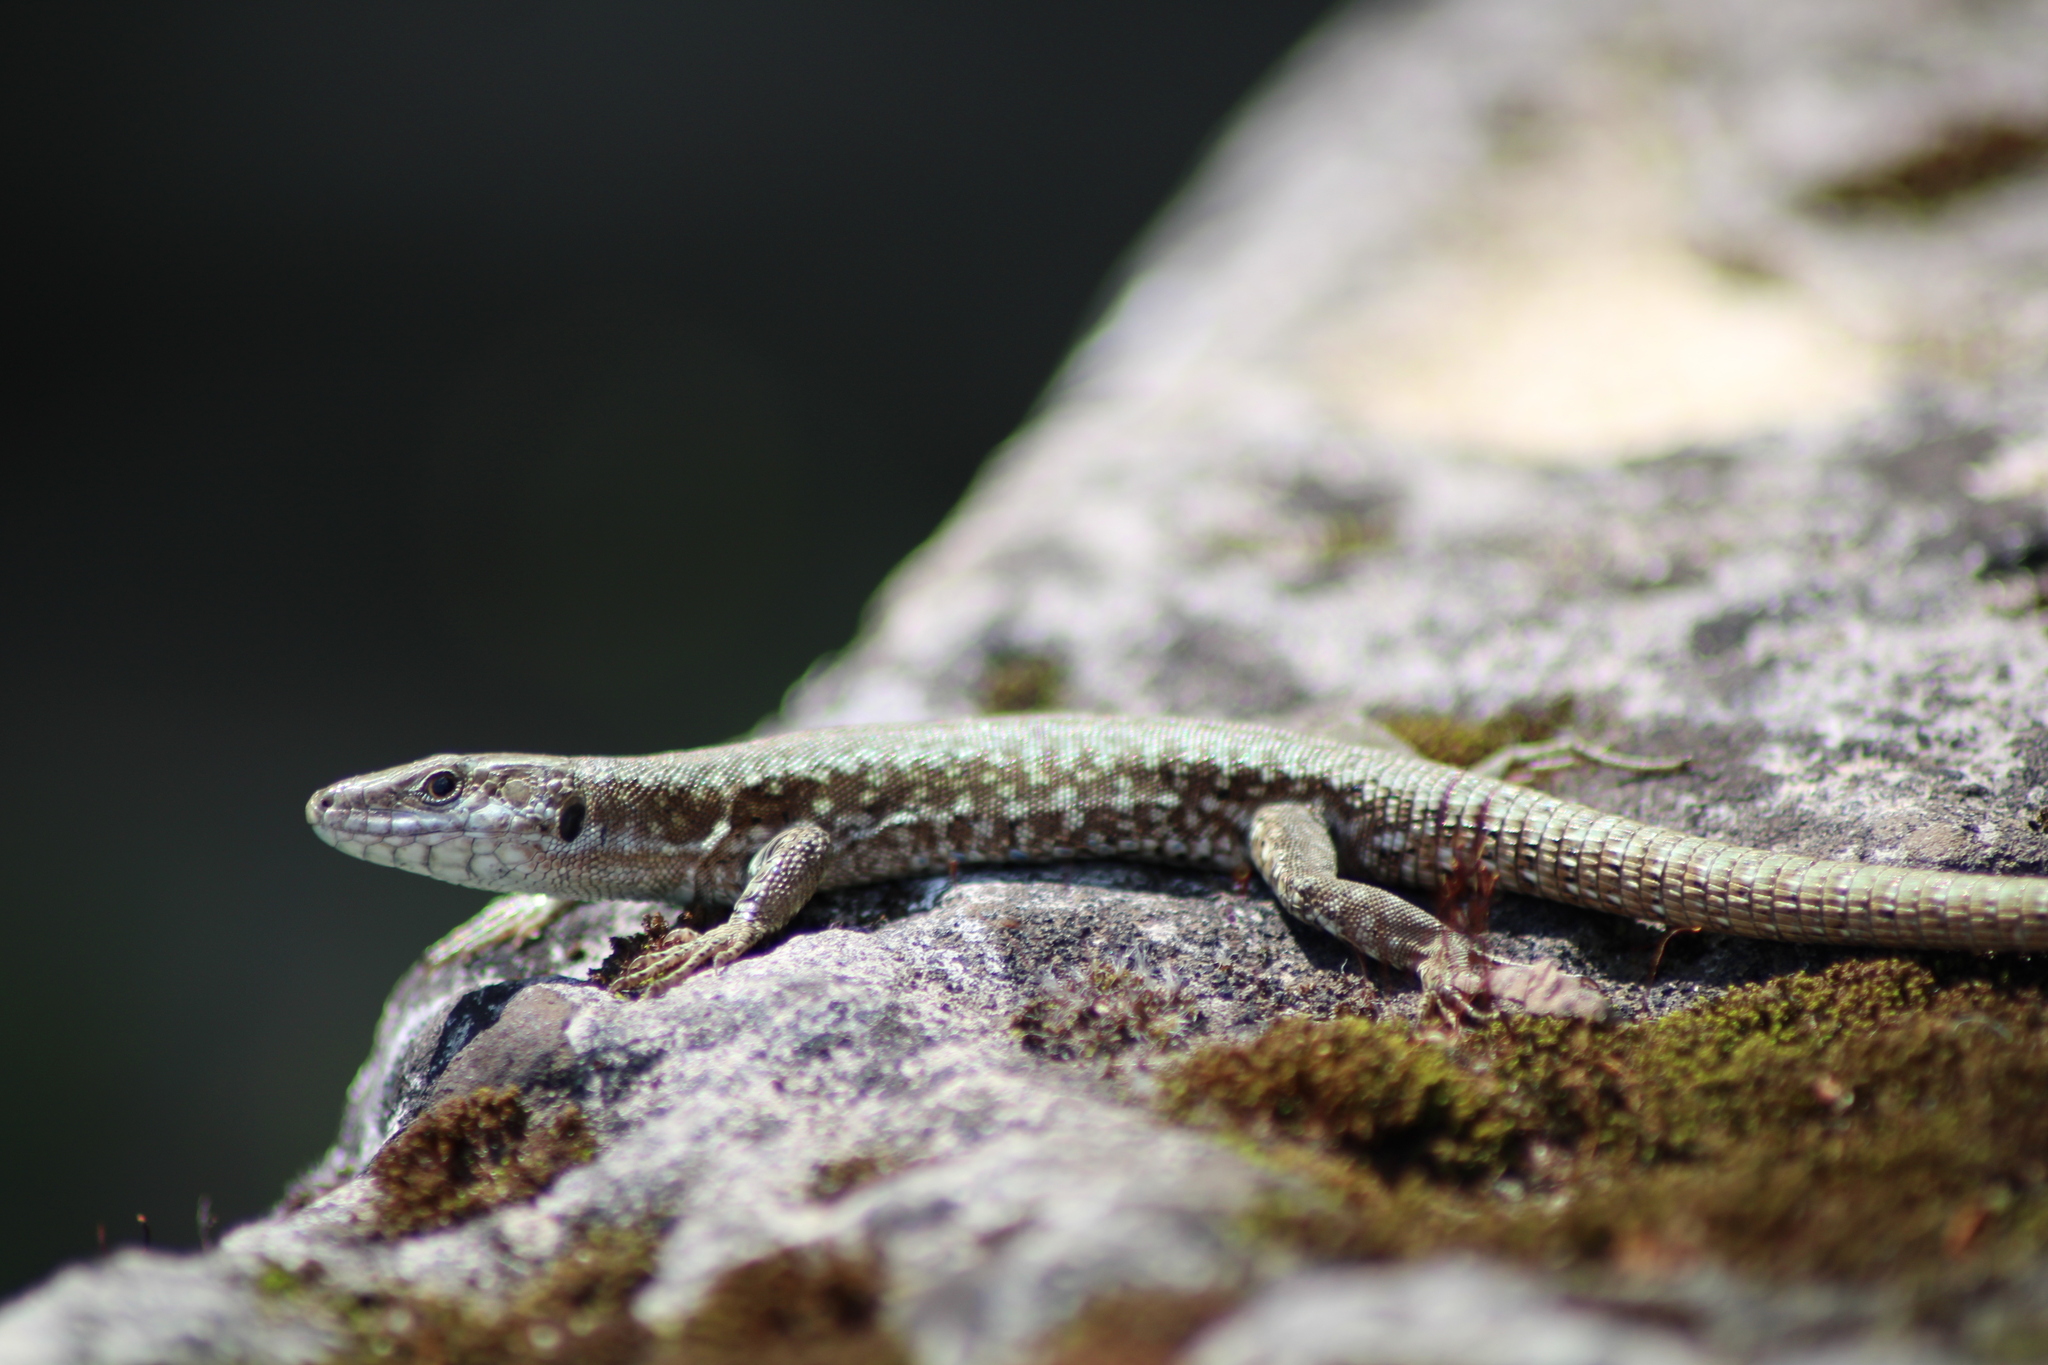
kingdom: Animalia
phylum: Chordata
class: Squamata
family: Lacertidae
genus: Podarcis
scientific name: Podarcis muralis
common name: Common wall lizard
